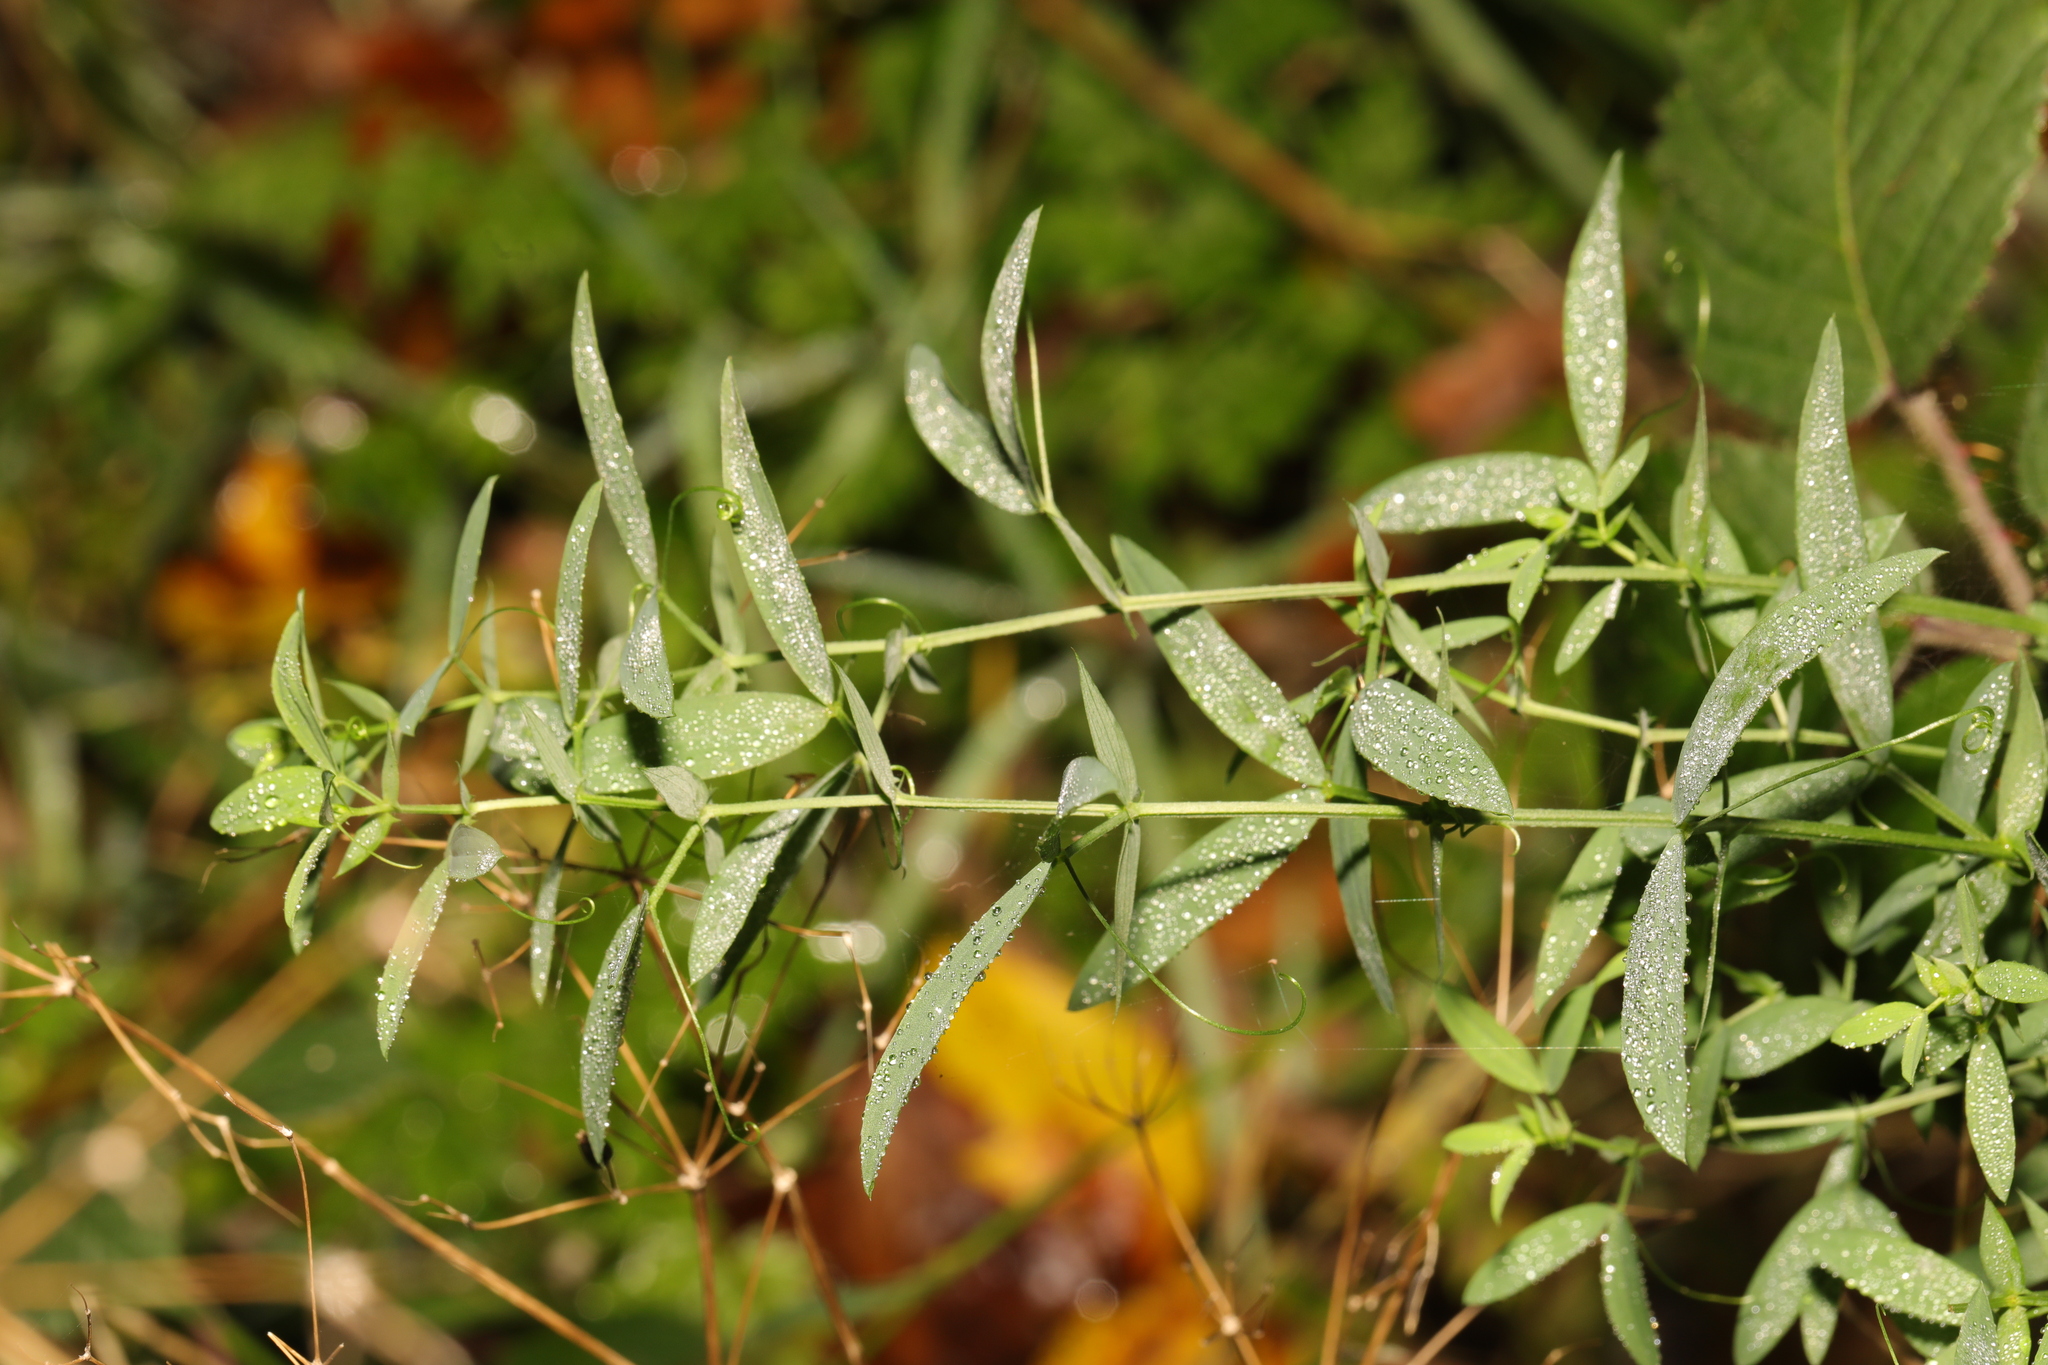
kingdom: Plantae
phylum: Tracheophyta
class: Magnoliopsida
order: Fabales
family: Fabaceae
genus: Lathyrus
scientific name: Lathyrus pratensis
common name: Meadow vetchling
